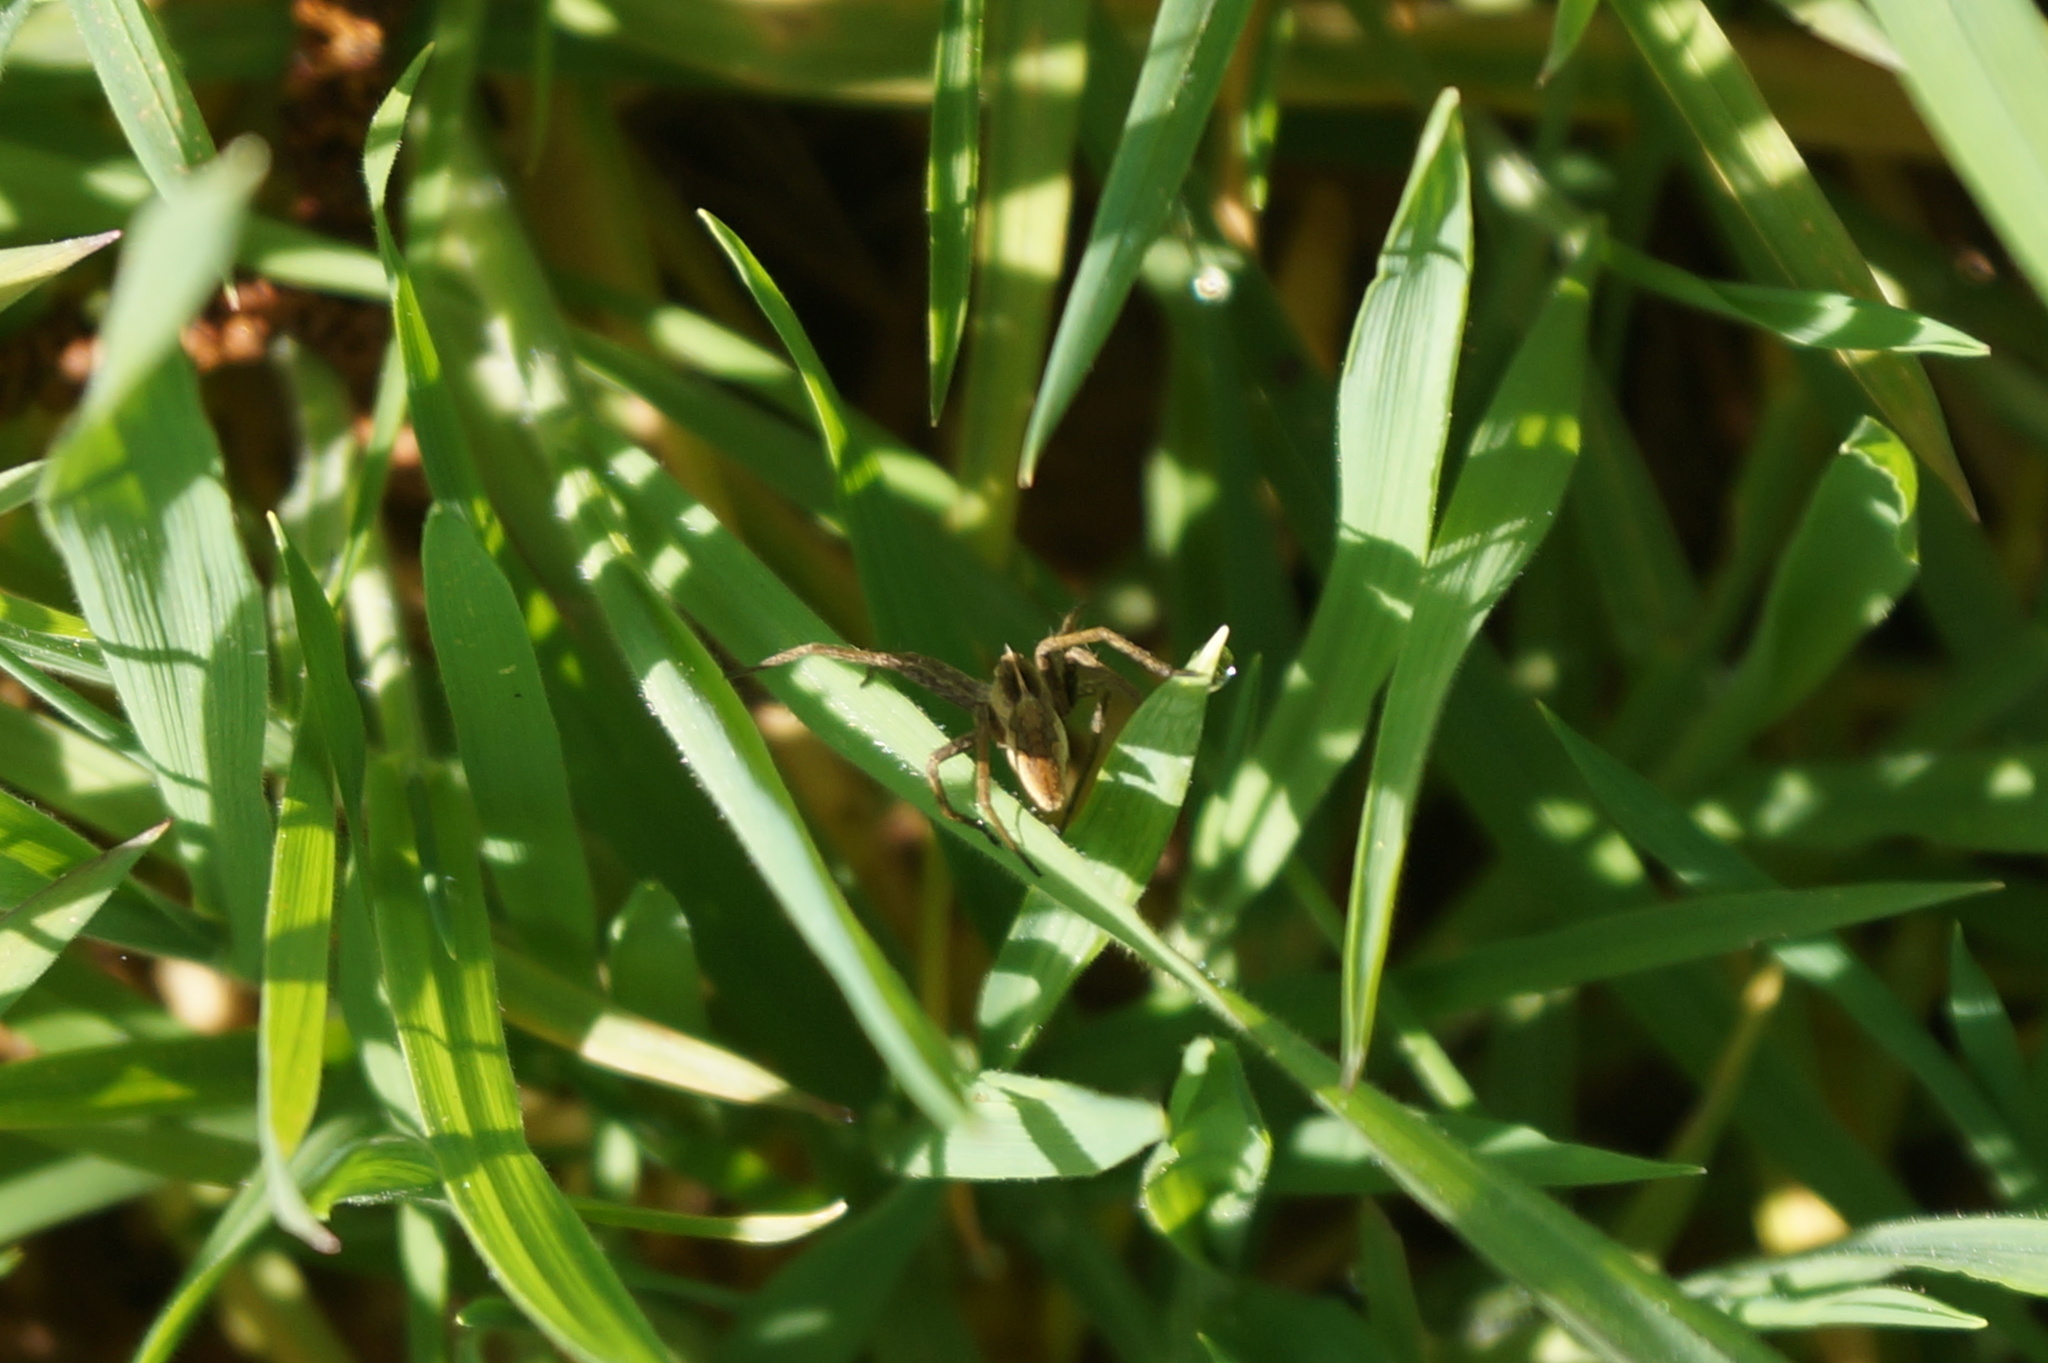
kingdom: Animalia
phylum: Arthropoda
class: Arachnida
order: Araneae
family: Pisauridae
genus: Pisaura
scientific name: Pisaura mirabilis
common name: Tent spider
